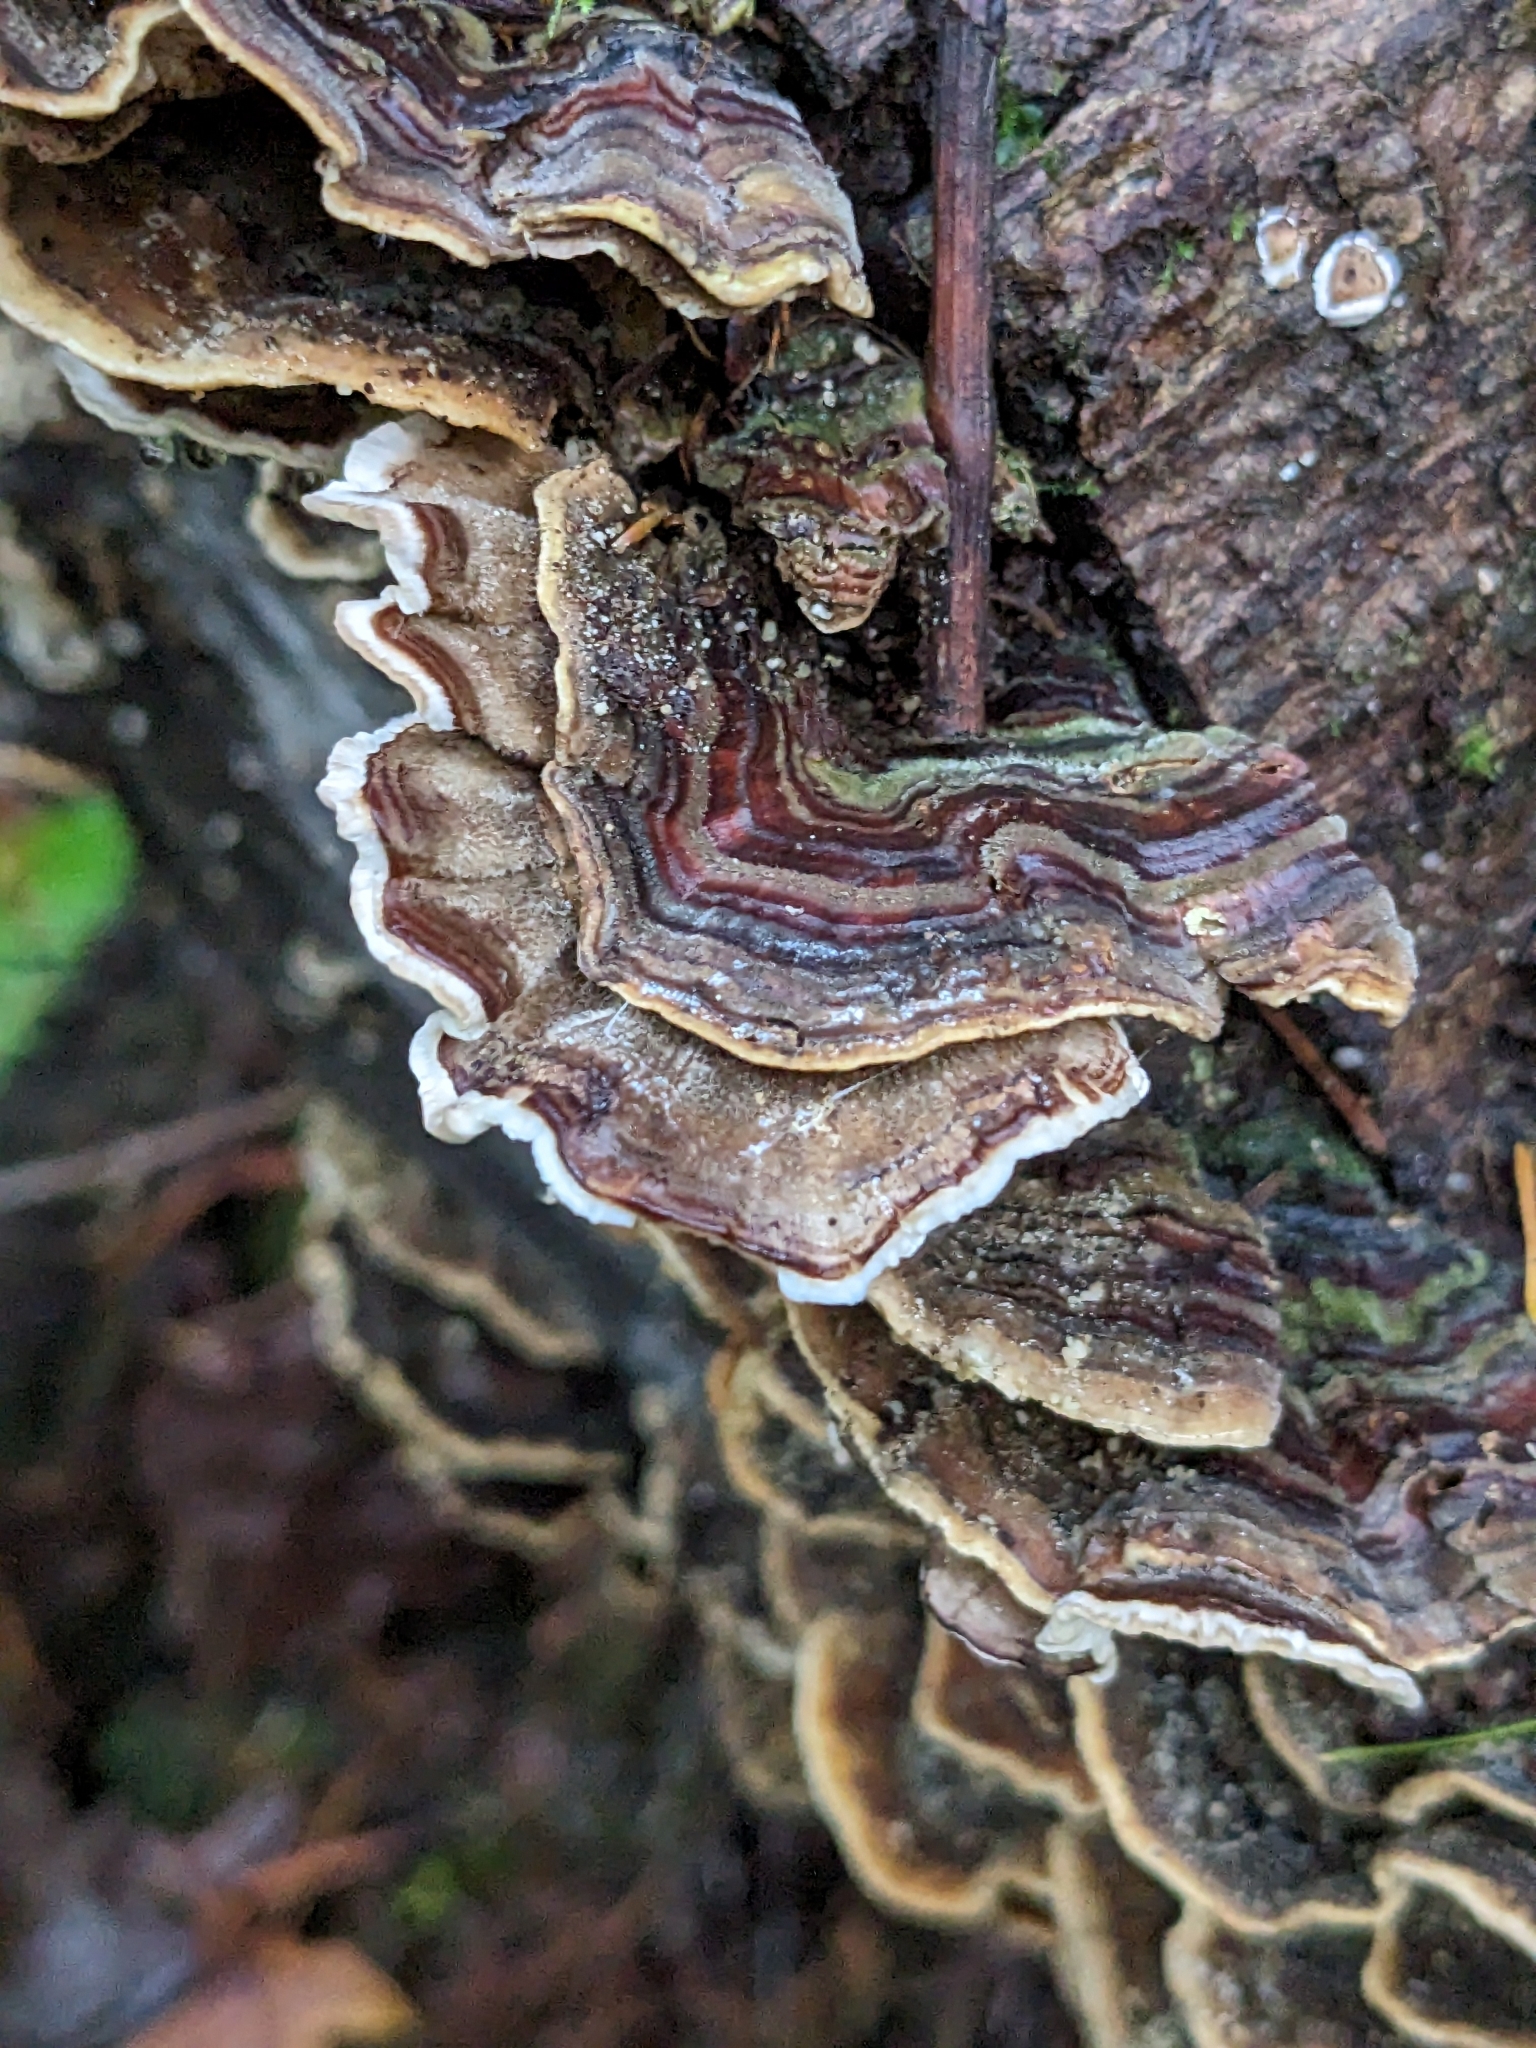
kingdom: Fungi
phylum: Basidiomycota
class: Agaricomycetes
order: Polyporales
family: Polyporaceae
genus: Trametes
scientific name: Trametes versicolor
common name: Turkeytail
